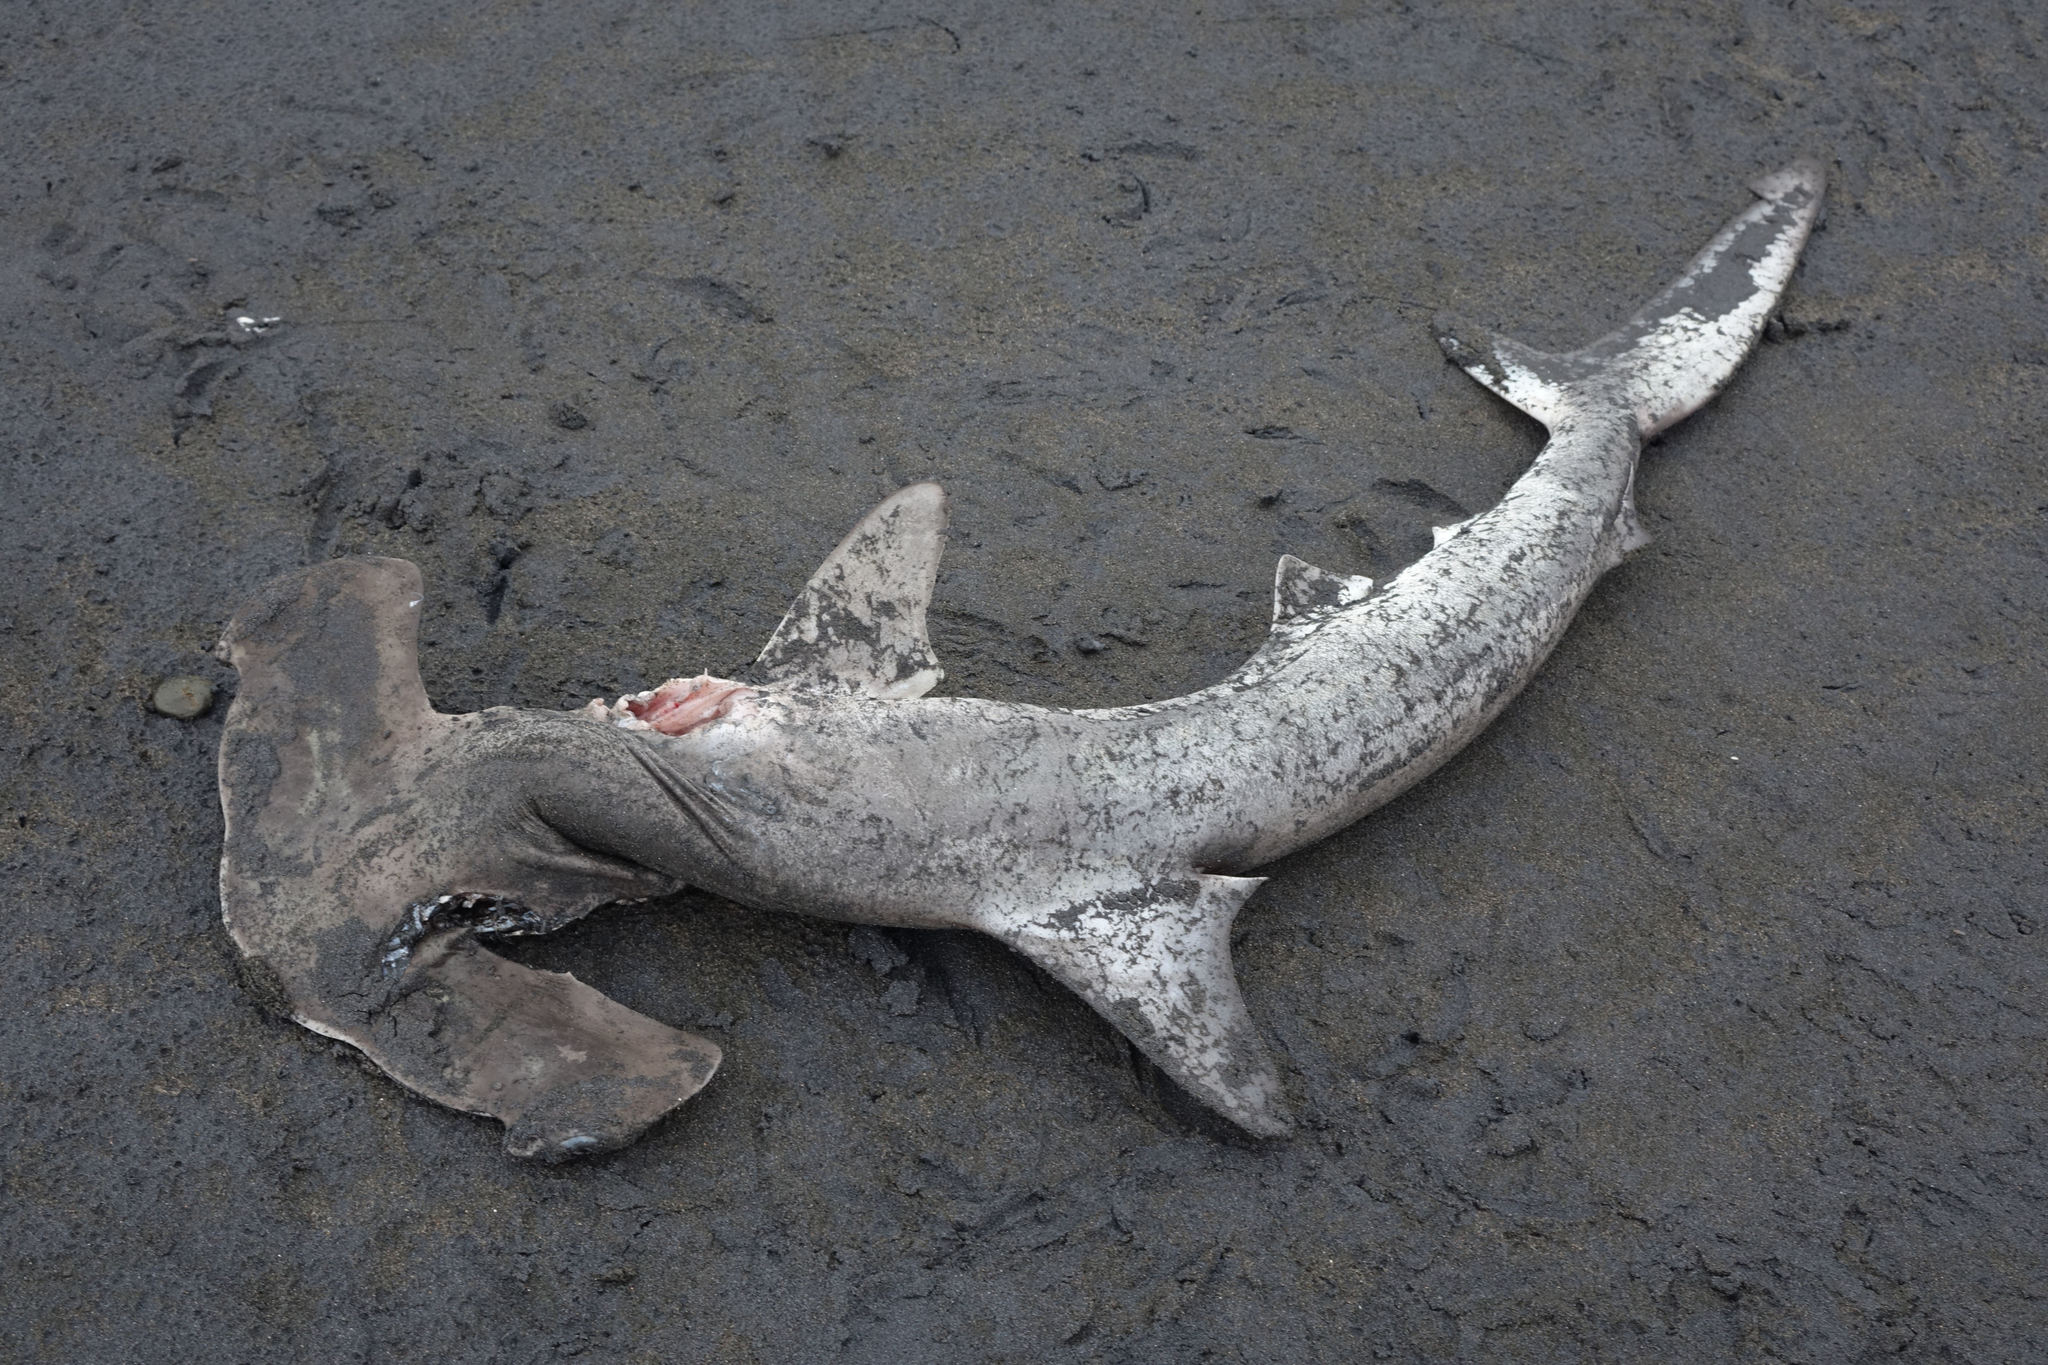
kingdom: Animalia
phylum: Chordata
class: Elasmobranchii
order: Carcharhiniformes
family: Sphyrnidae
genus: Sphyrna
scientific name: Sphyrna zygaena
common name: Smooth hammerhead
